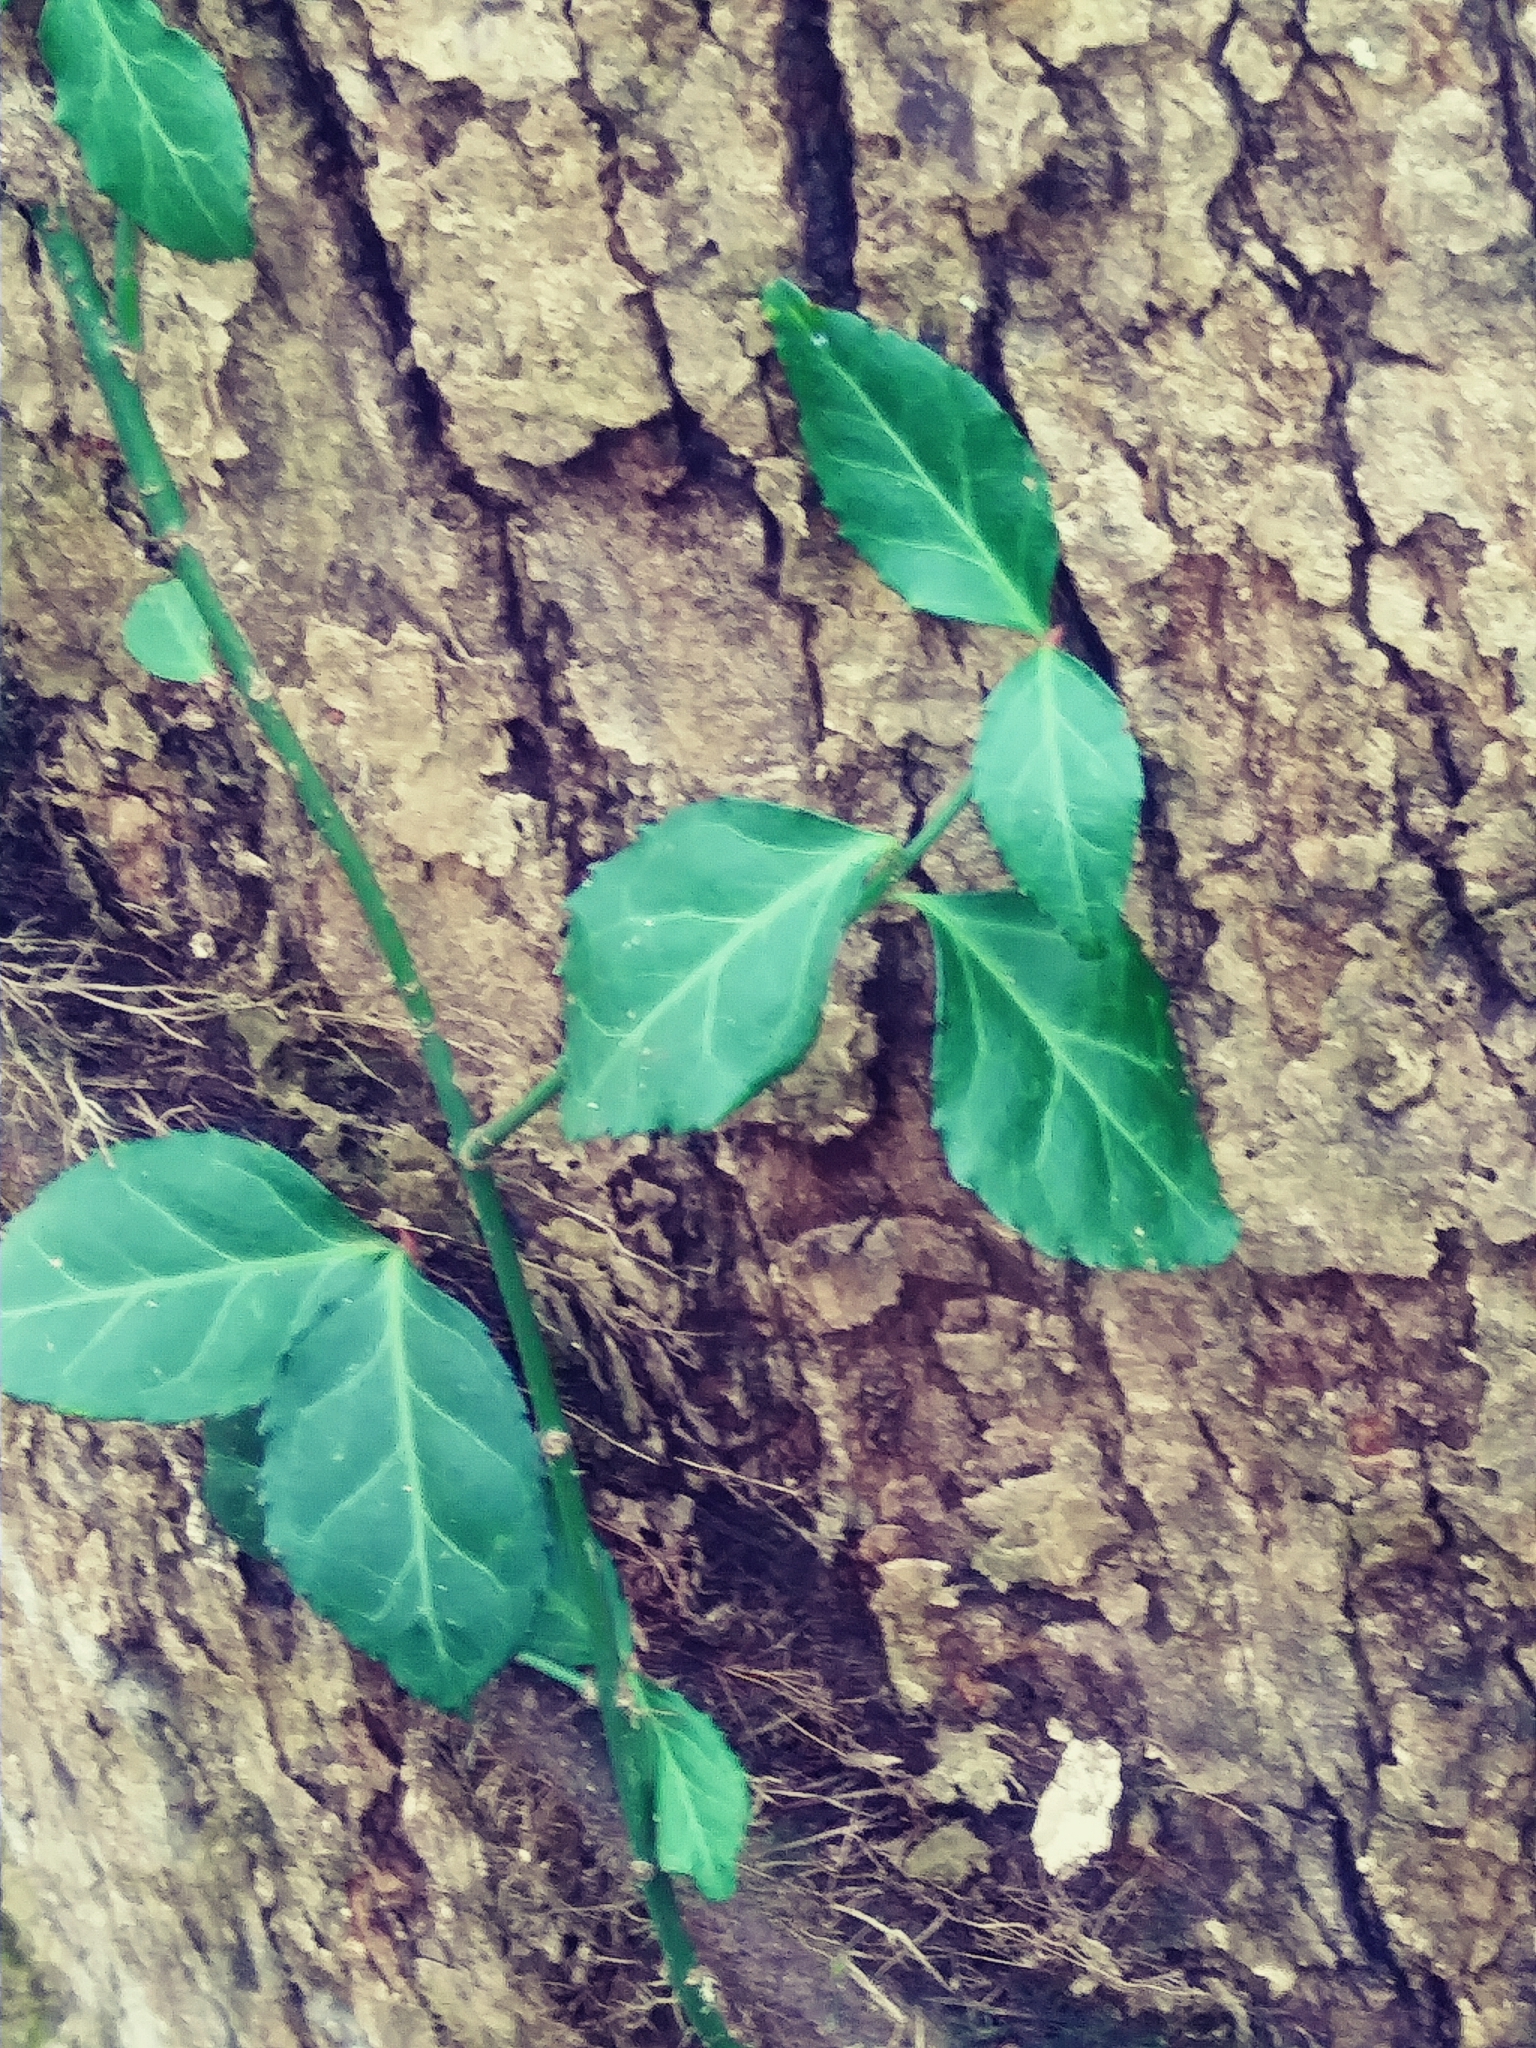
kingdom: Plantae
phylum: Tracheophyta
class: Magnoliopsida
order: Celastrales
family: Celastraceae
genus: Euonymus
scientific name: Euonymus fortunei
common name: Climbing euonymus
